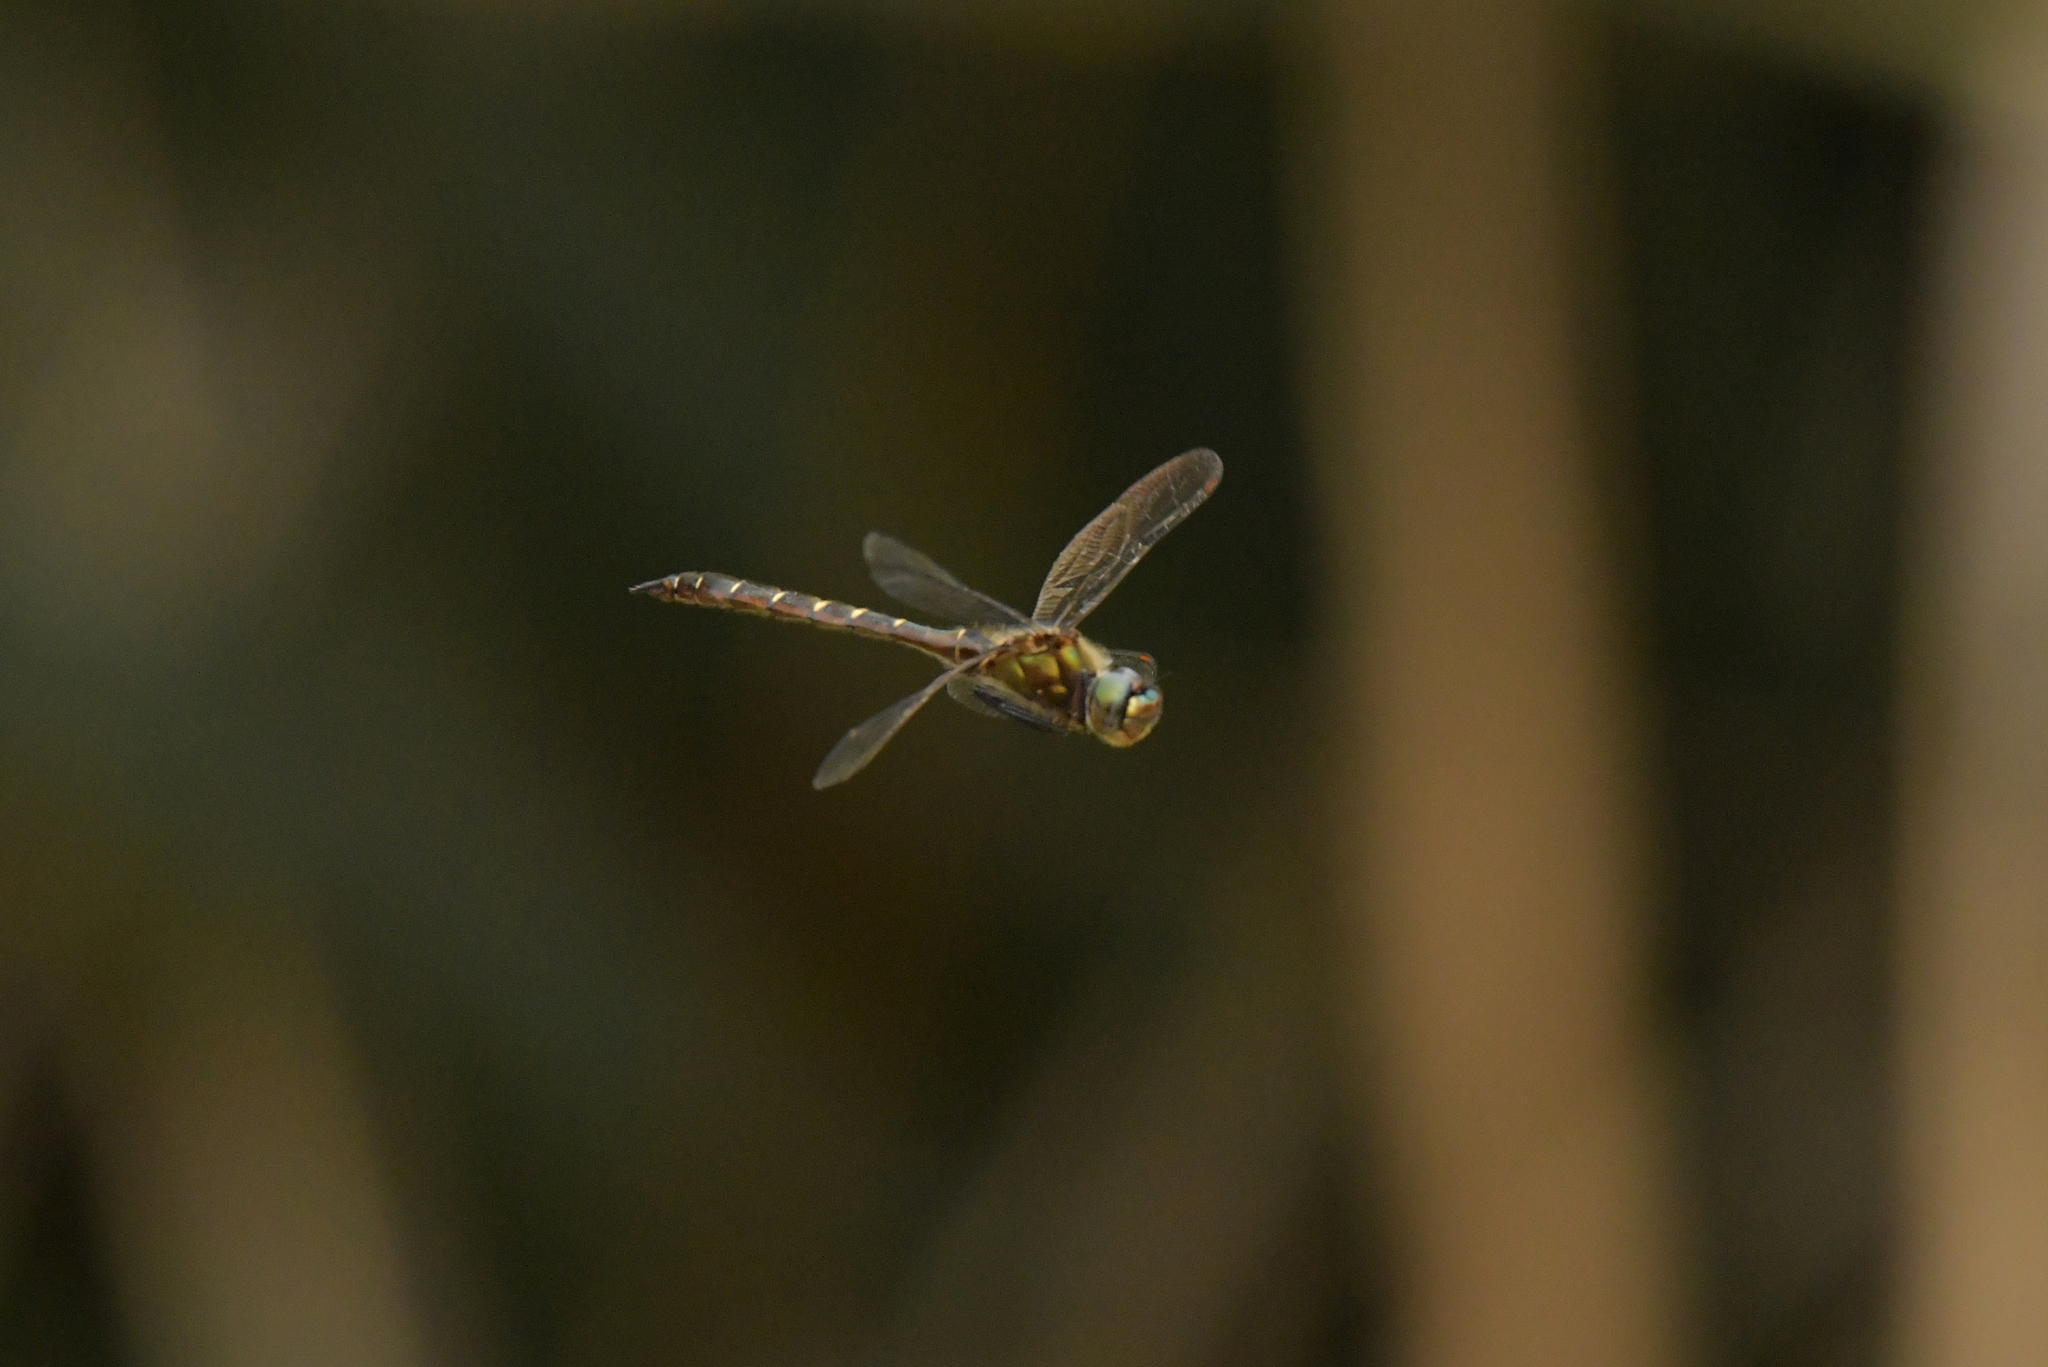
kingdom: Animalia
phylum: Arthropoda
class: Insecta
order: Odonata
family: Corduliidae
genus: Procordulia
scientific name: Procordulia smithii
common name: Ranger dragonfly
